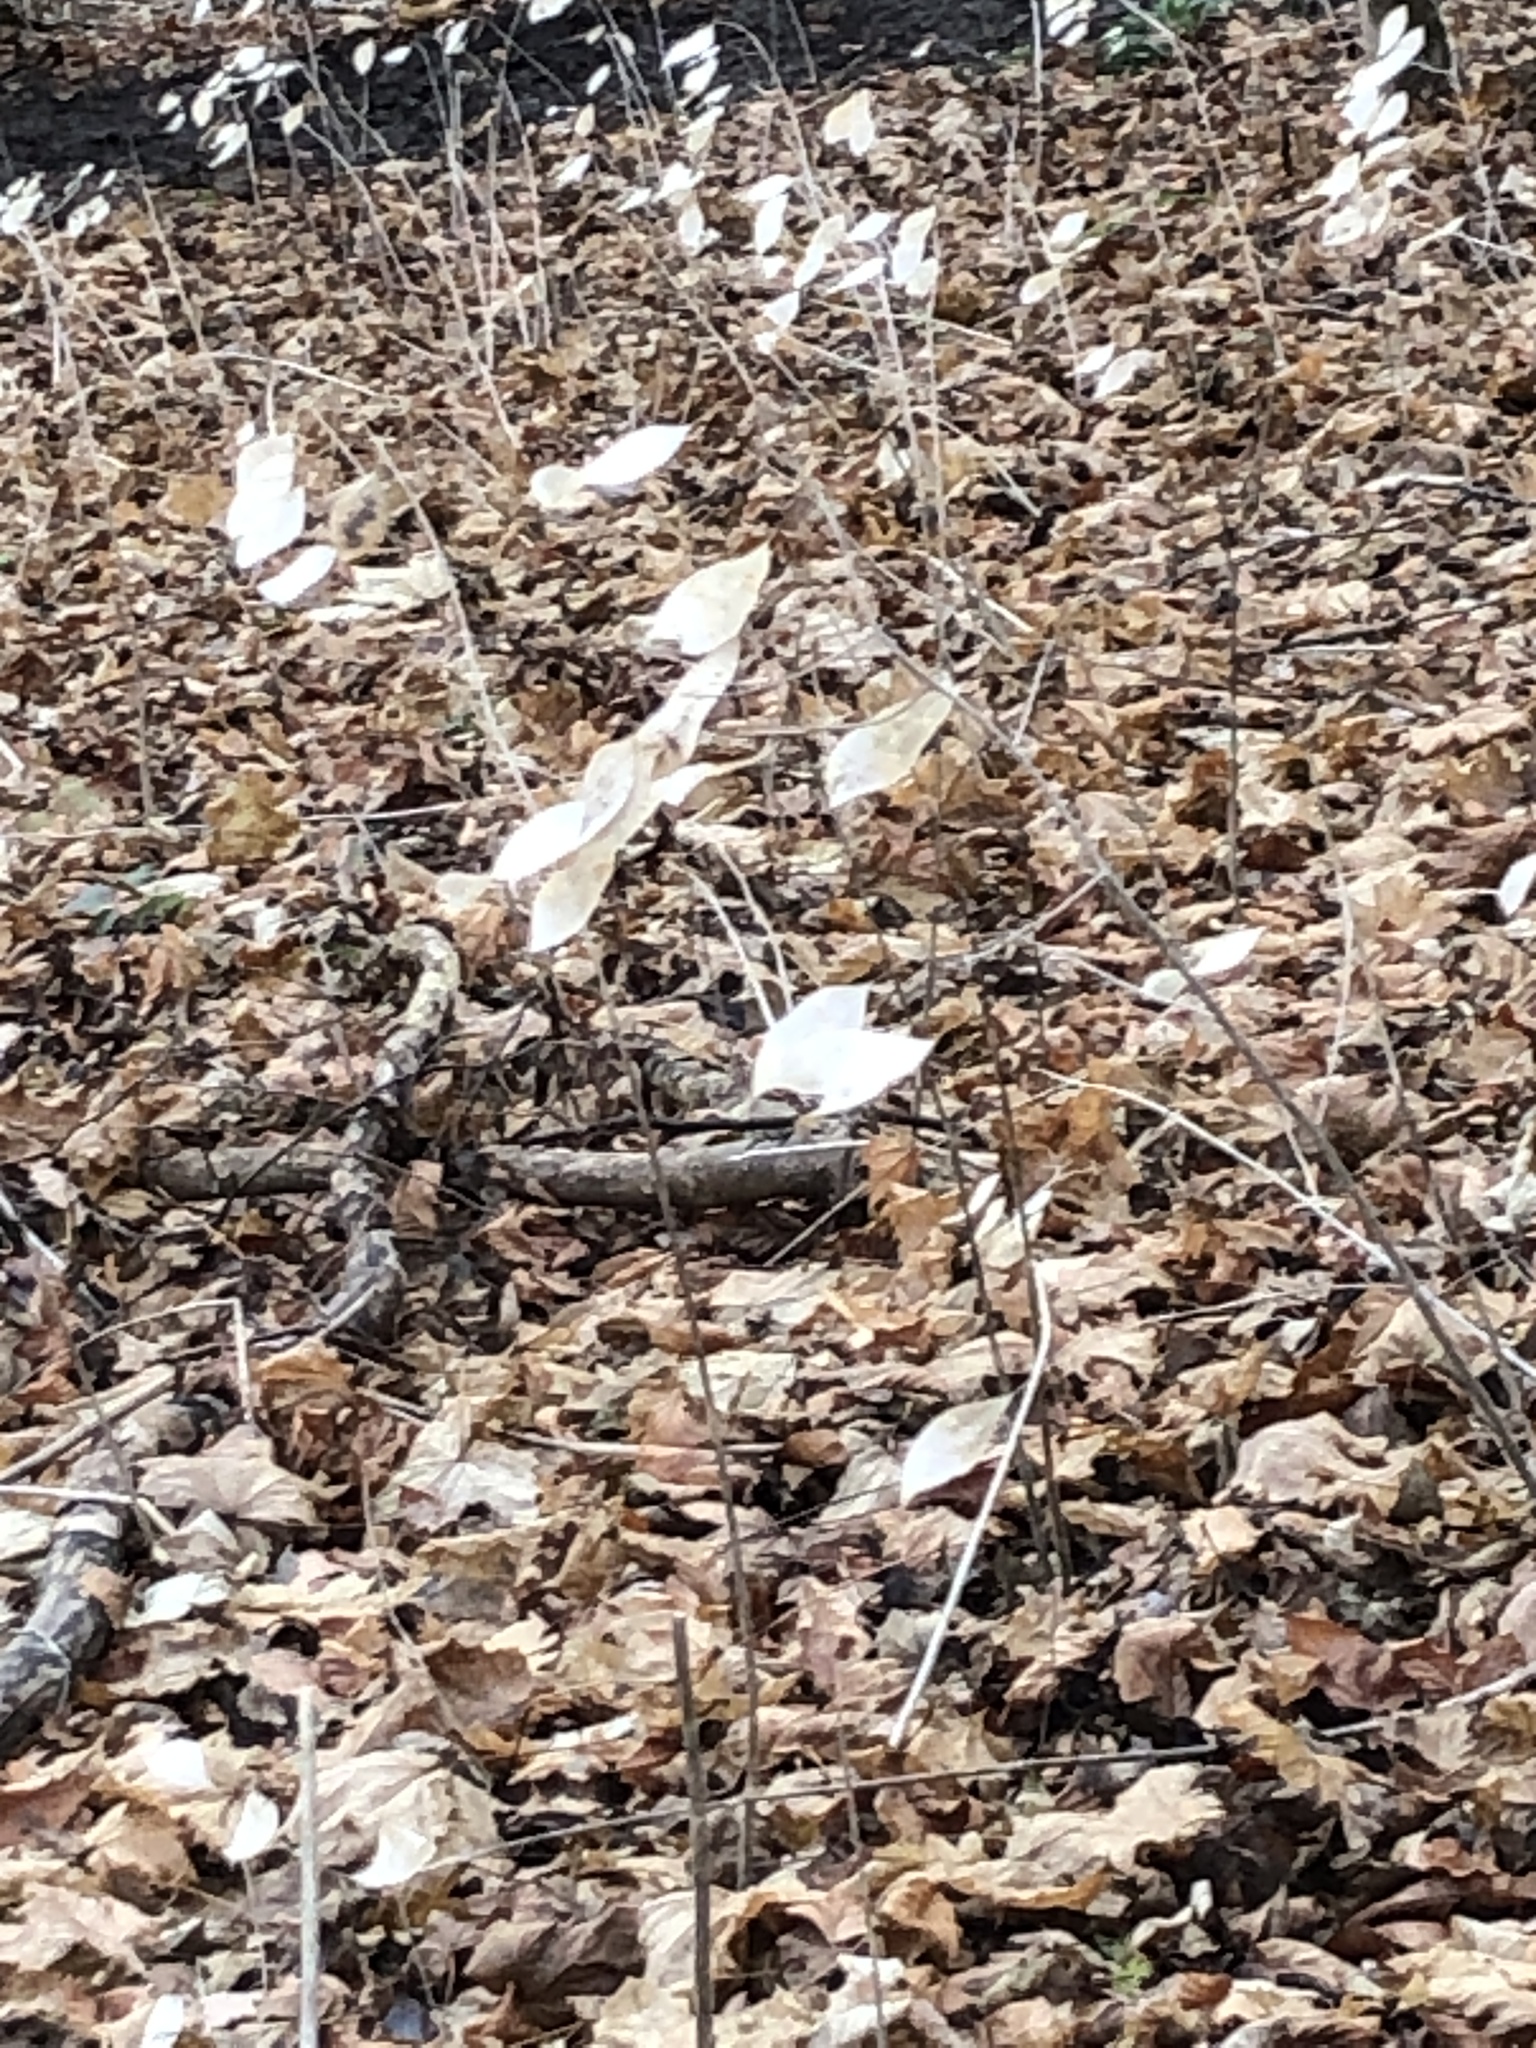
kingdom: Plantae
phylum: Tracheophyta
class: Magnoliopsida
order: Brassicales
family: Brassicaceae
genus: Lunaria
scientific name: Lunaria rediviva
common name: Perennial honesty
